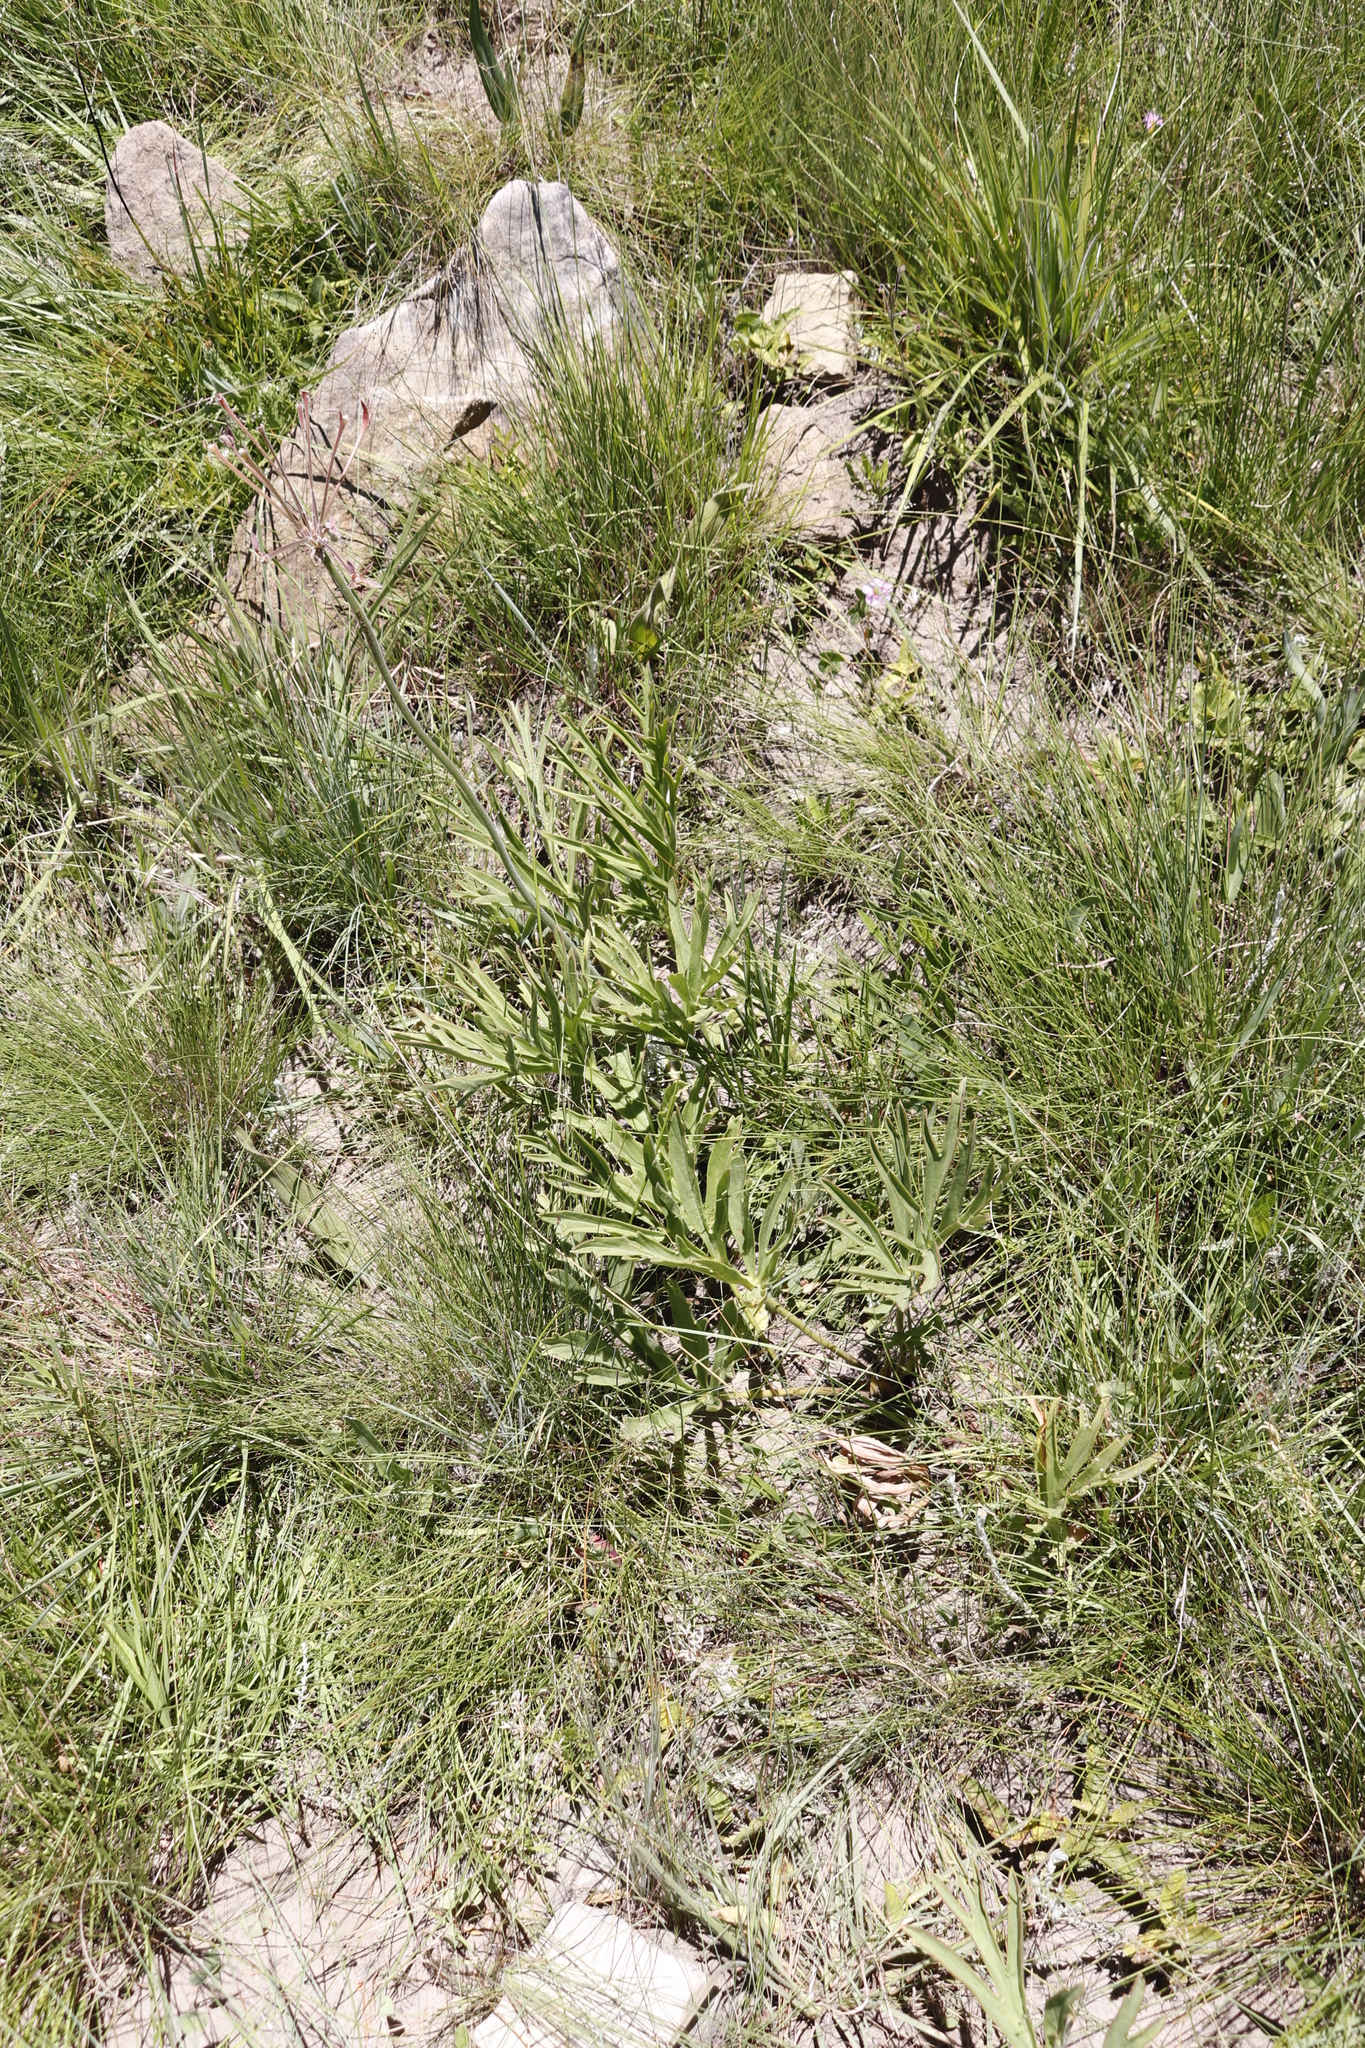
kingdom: Plantae
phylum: Tracheophyta
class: Magnoliopsida
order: Geraniales
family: Geraniaceae
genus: Pelargonium
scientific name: Pelargonium luridum
